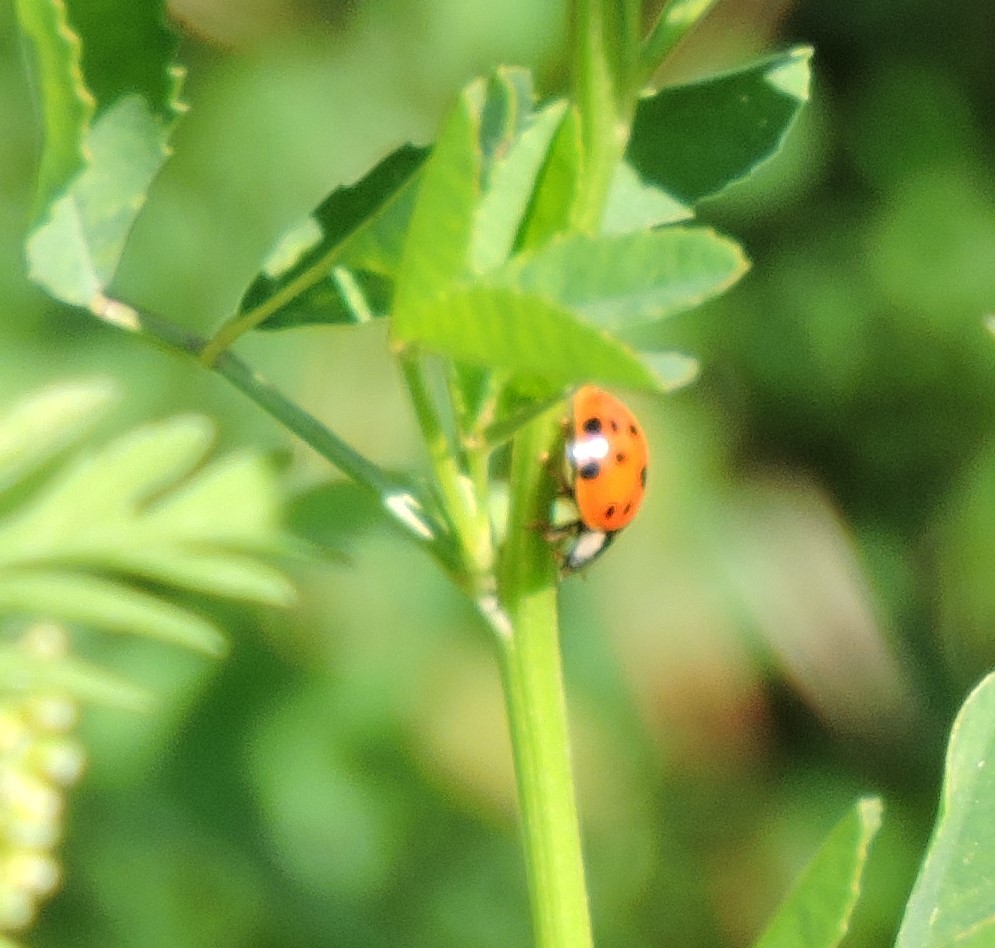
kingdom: Animalia
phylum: Arthropoda
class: Insecta
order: Coleoptera
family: Coccinellidae
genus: Harmonia
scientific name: Harmonia axyridis
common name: Harlequin ladybird
